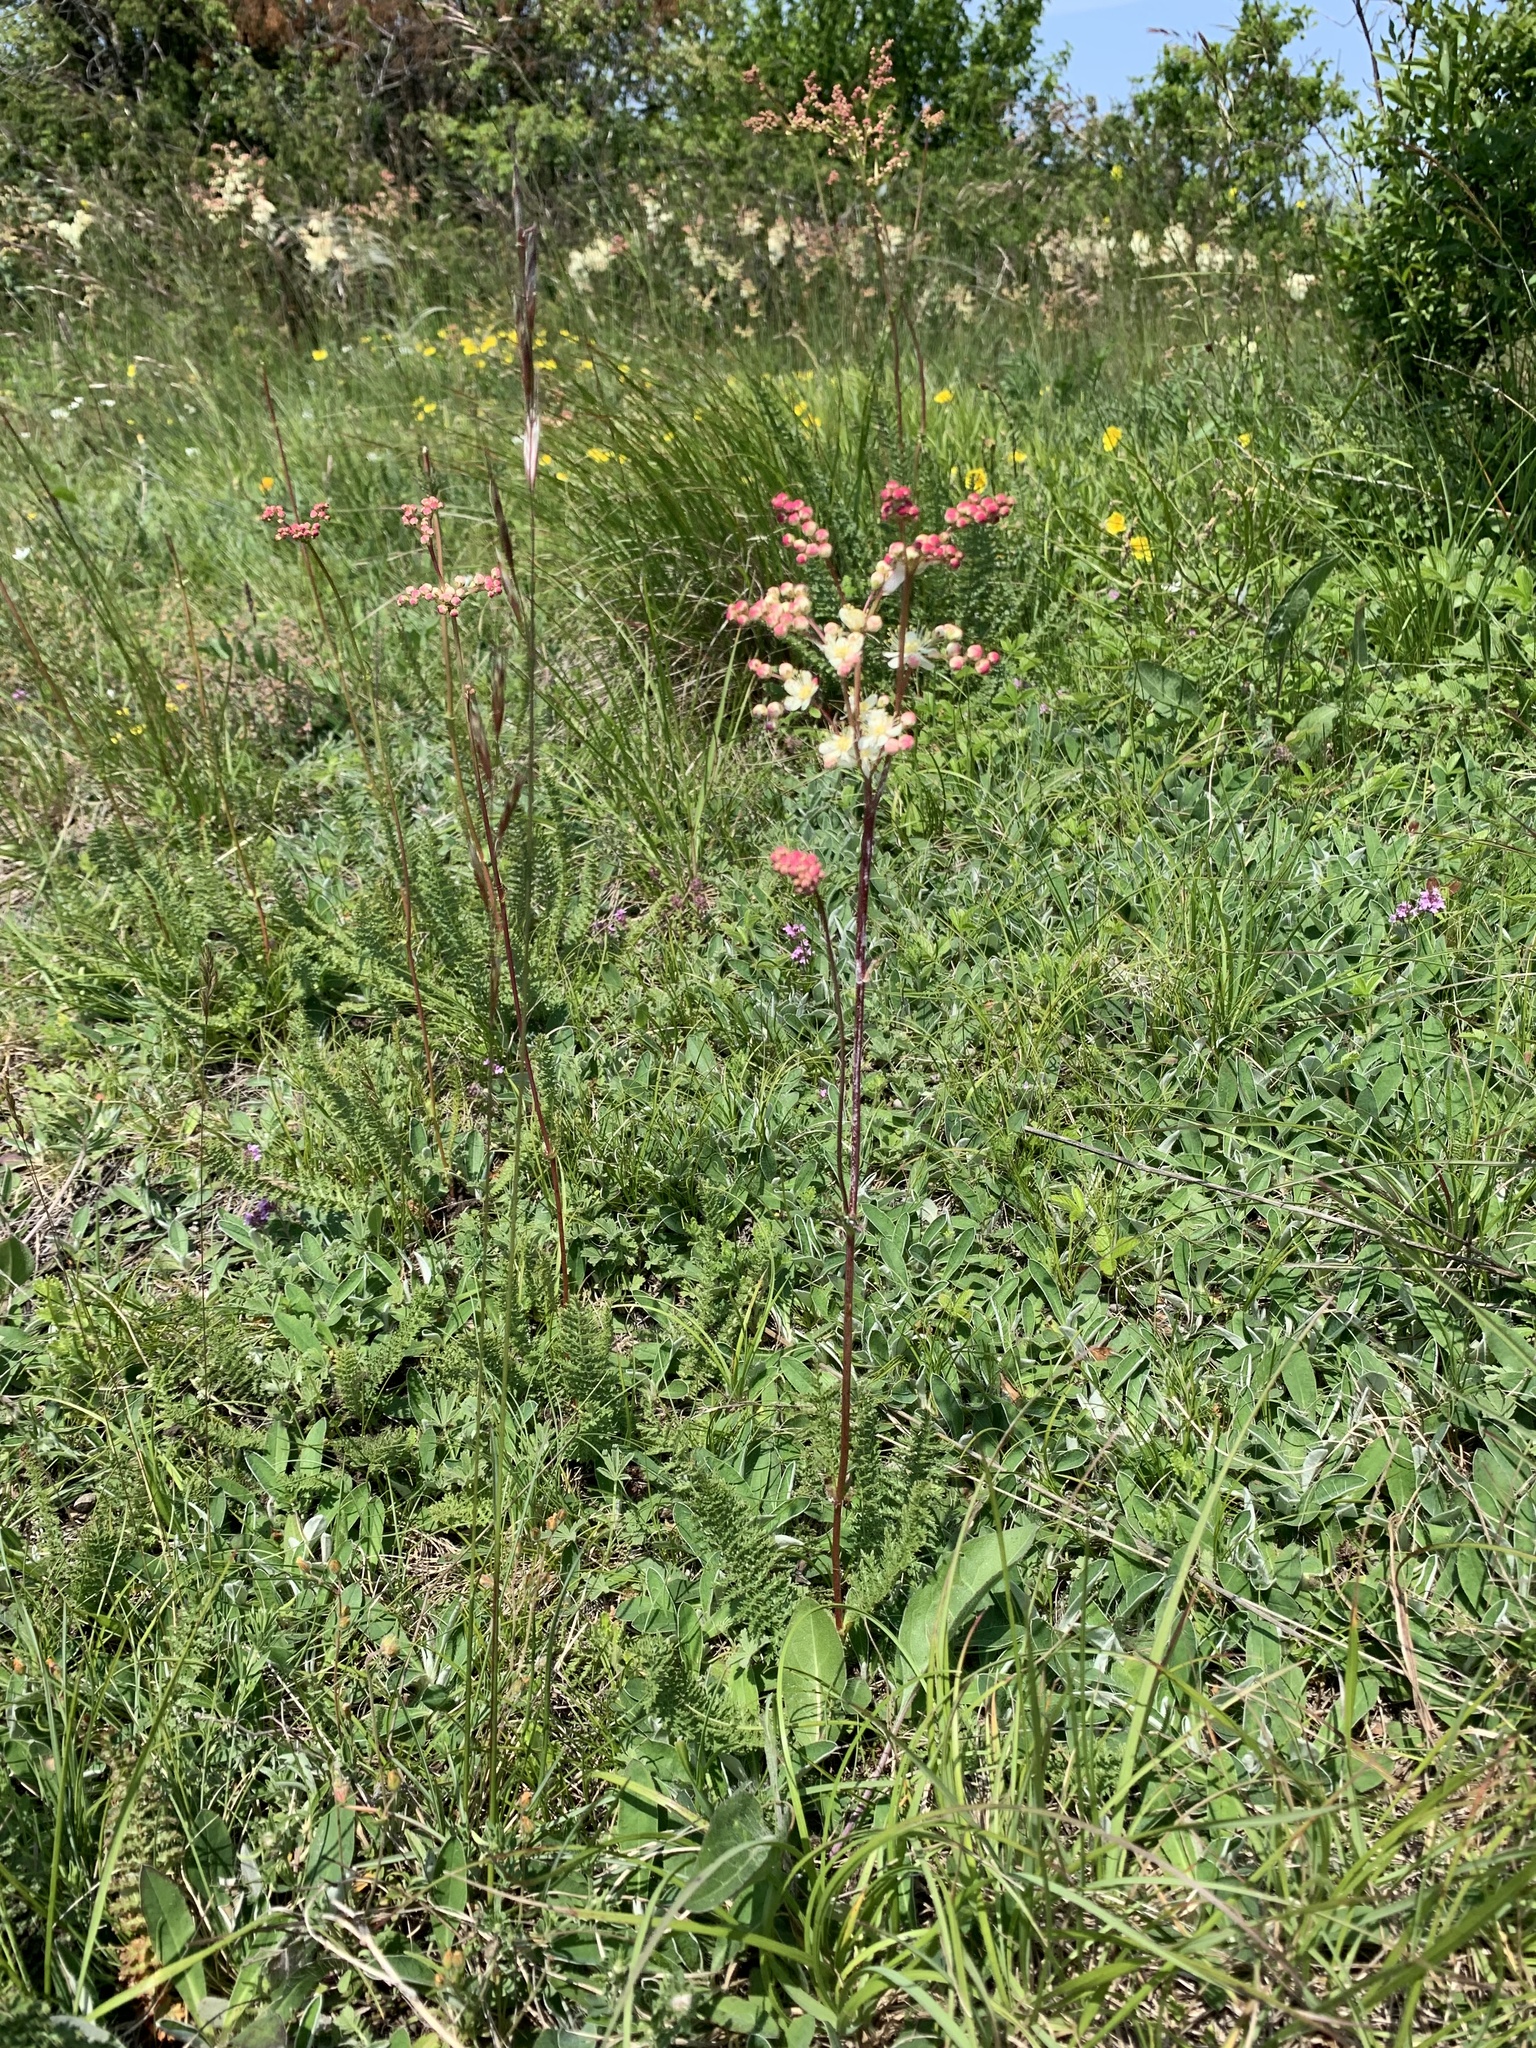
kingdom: Plantae
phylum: Tracheophyta
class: Magnoliopsida
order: Rosales
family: Rosaceae
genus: Filipendula
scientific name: Filipendula vulgaris
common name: Dropwort
